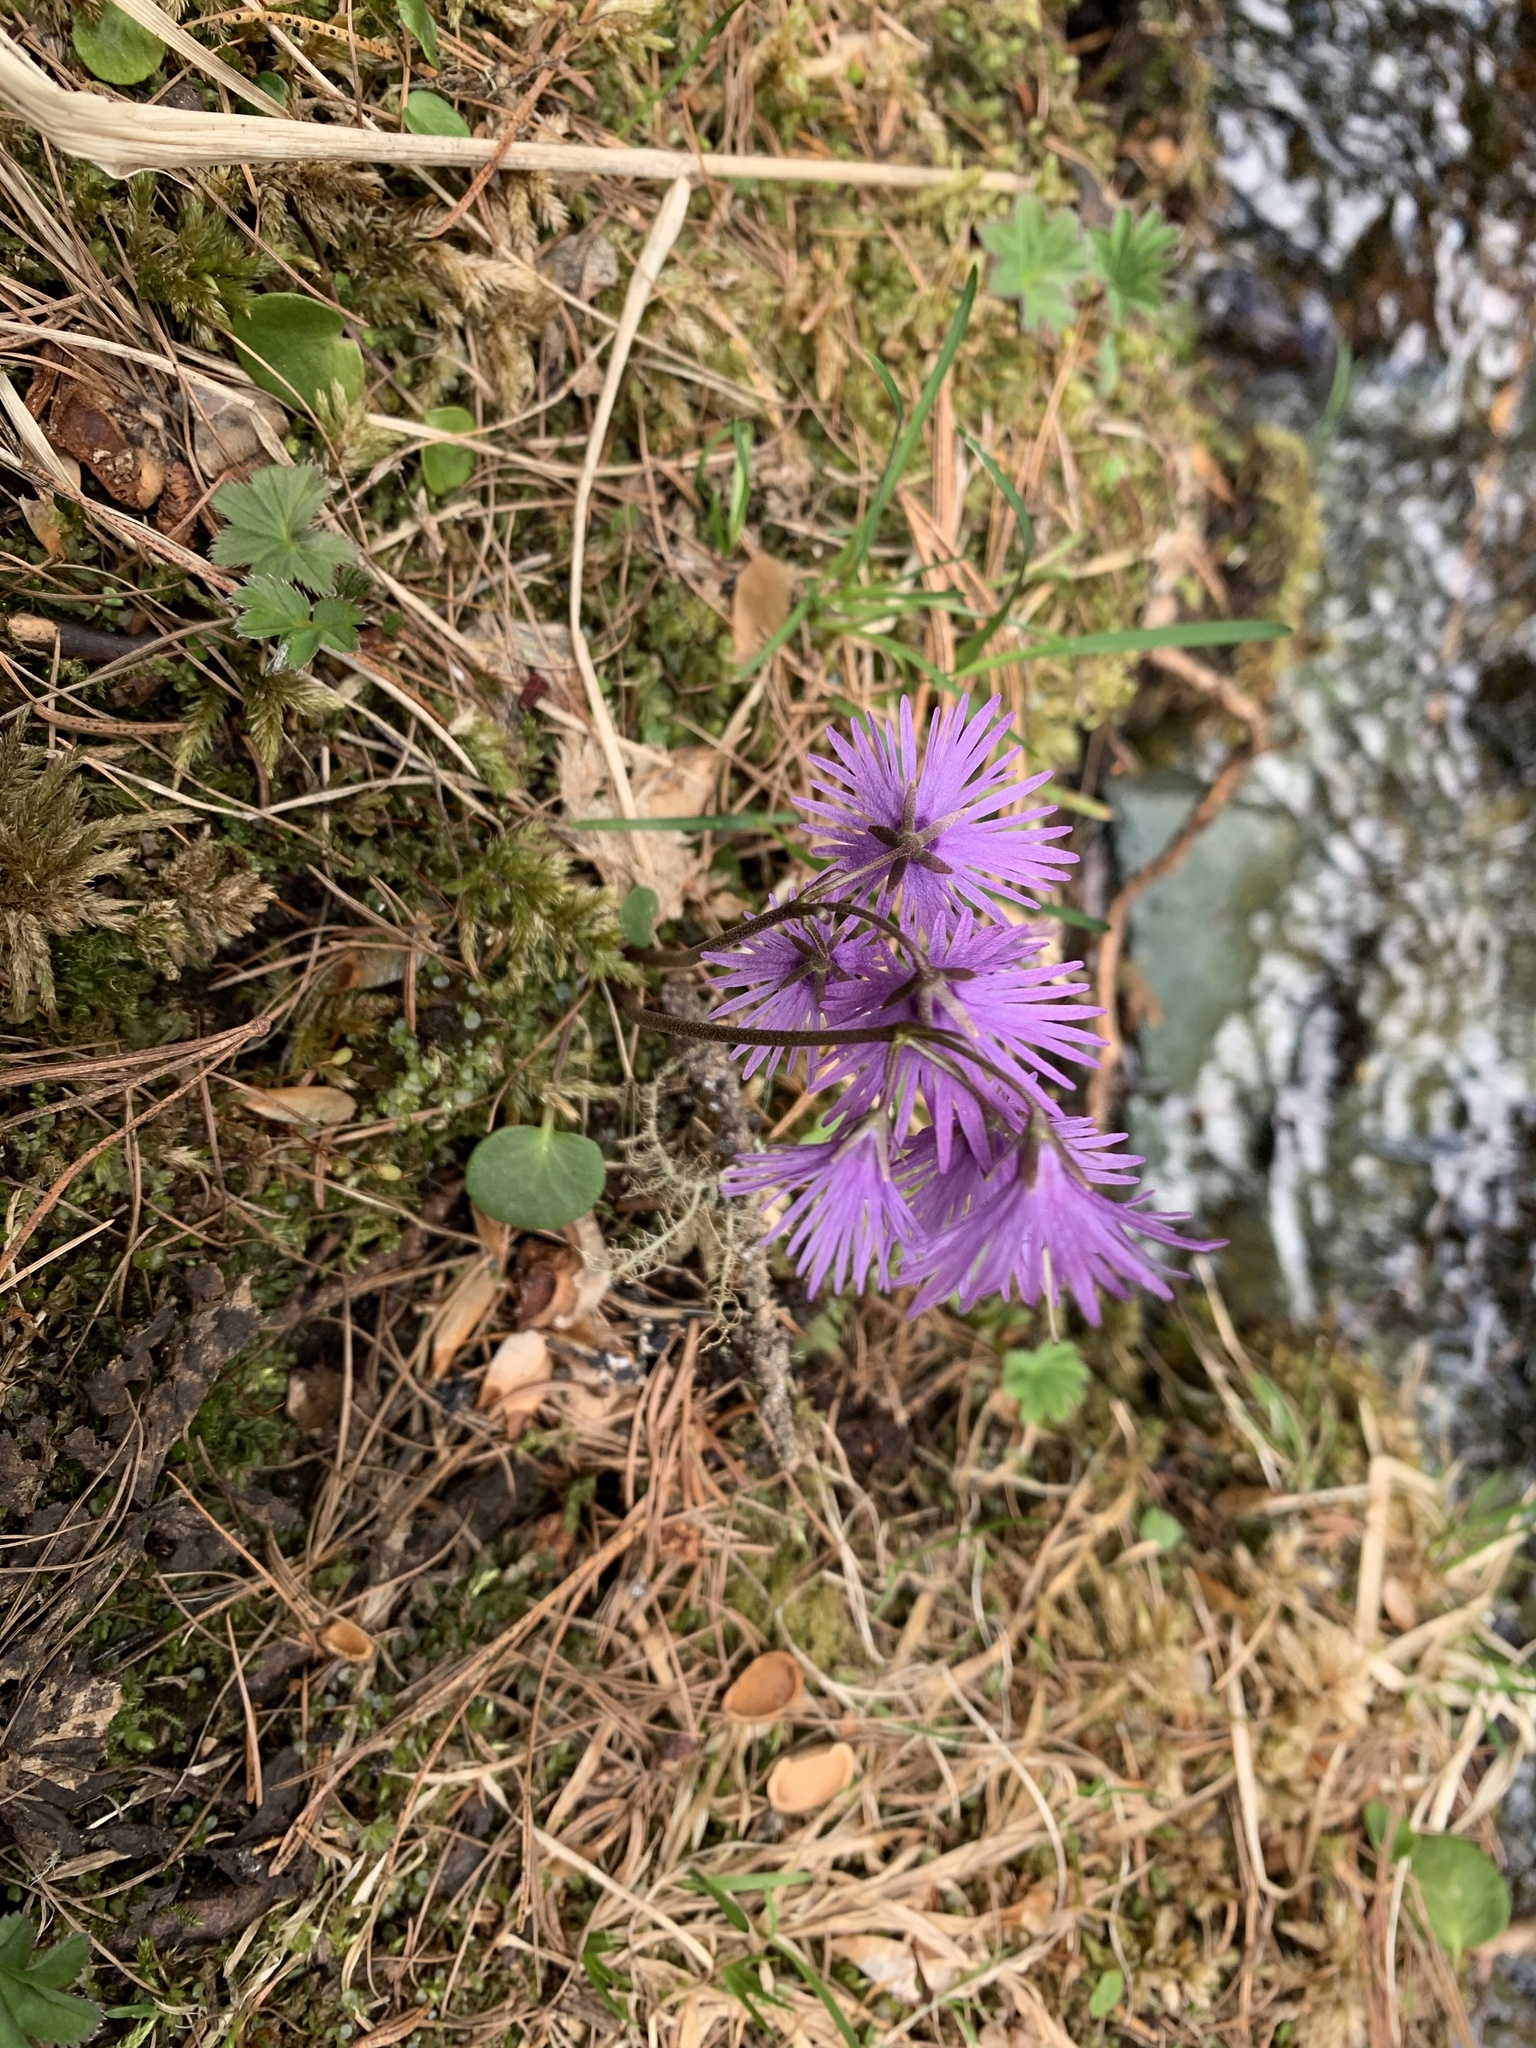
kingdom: Plantae
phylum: Tracheophyta
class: Magnoliopsida
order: Ericales
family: Primulaceae
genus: Soldanella
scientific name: Soldanella alpina
